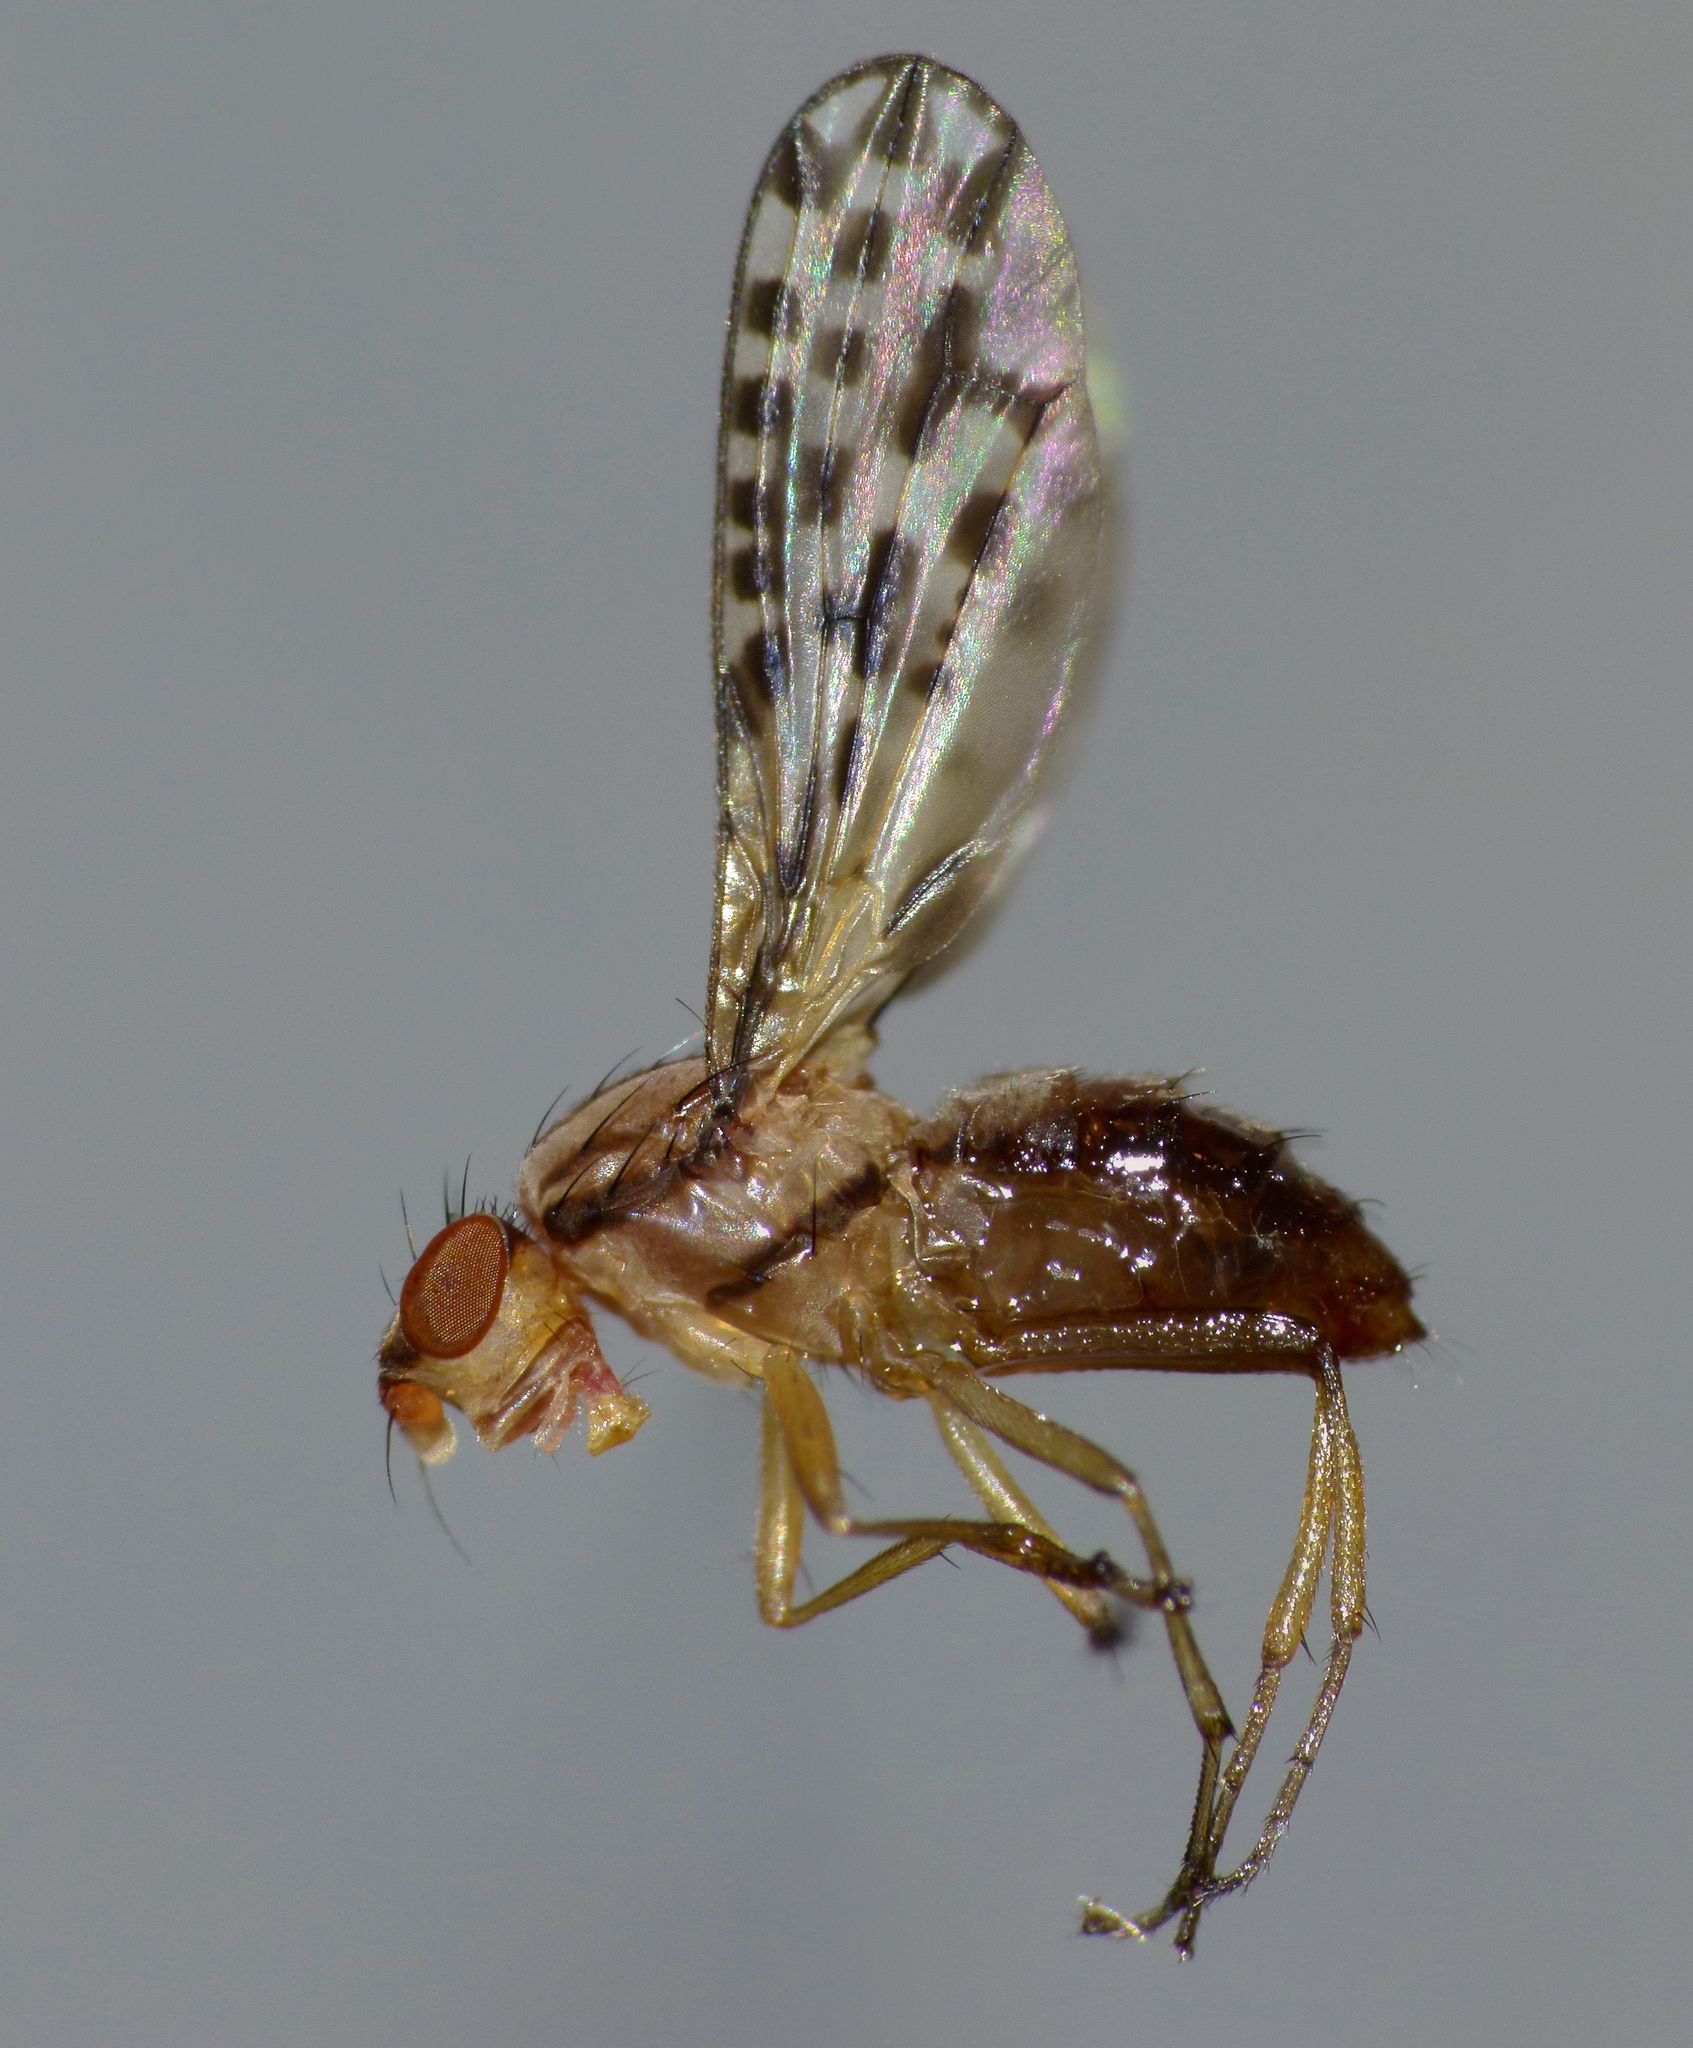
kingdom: Animalia
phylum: Arthropoda
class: Insecta
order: Diptera
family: Huttoninidae
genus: Huttonina
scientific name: Huttonina scutellaris
